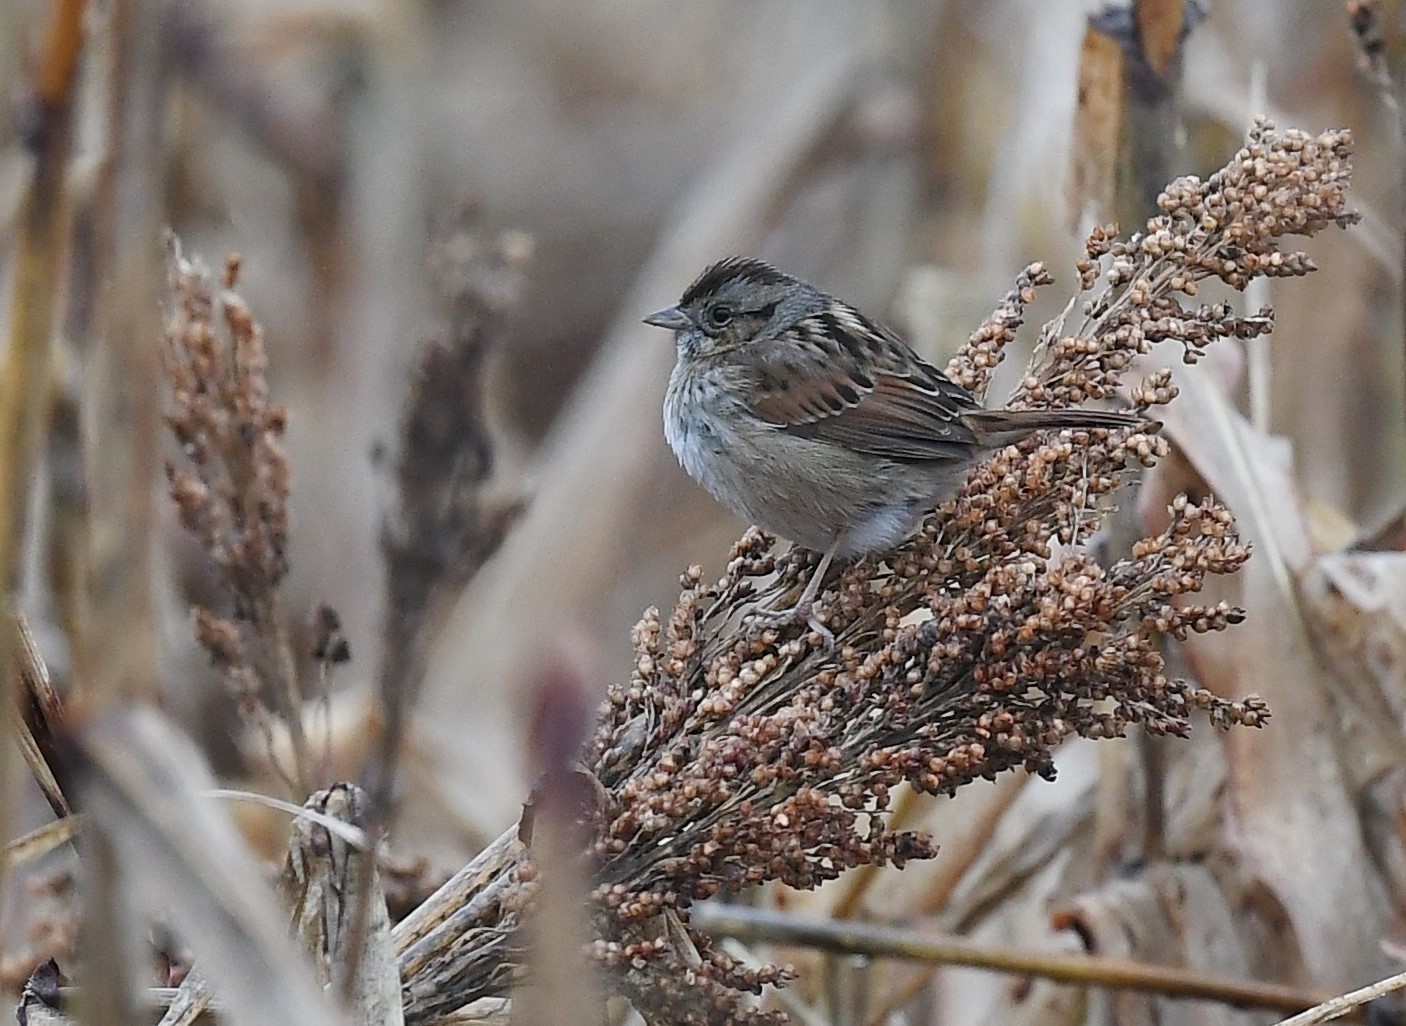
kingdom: Animalia
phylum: Chordata
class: Aves
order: Passeriformes
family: Passerellidae
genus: Melospiza
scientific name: Melospiza georgiana
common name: Swamp sparrow
